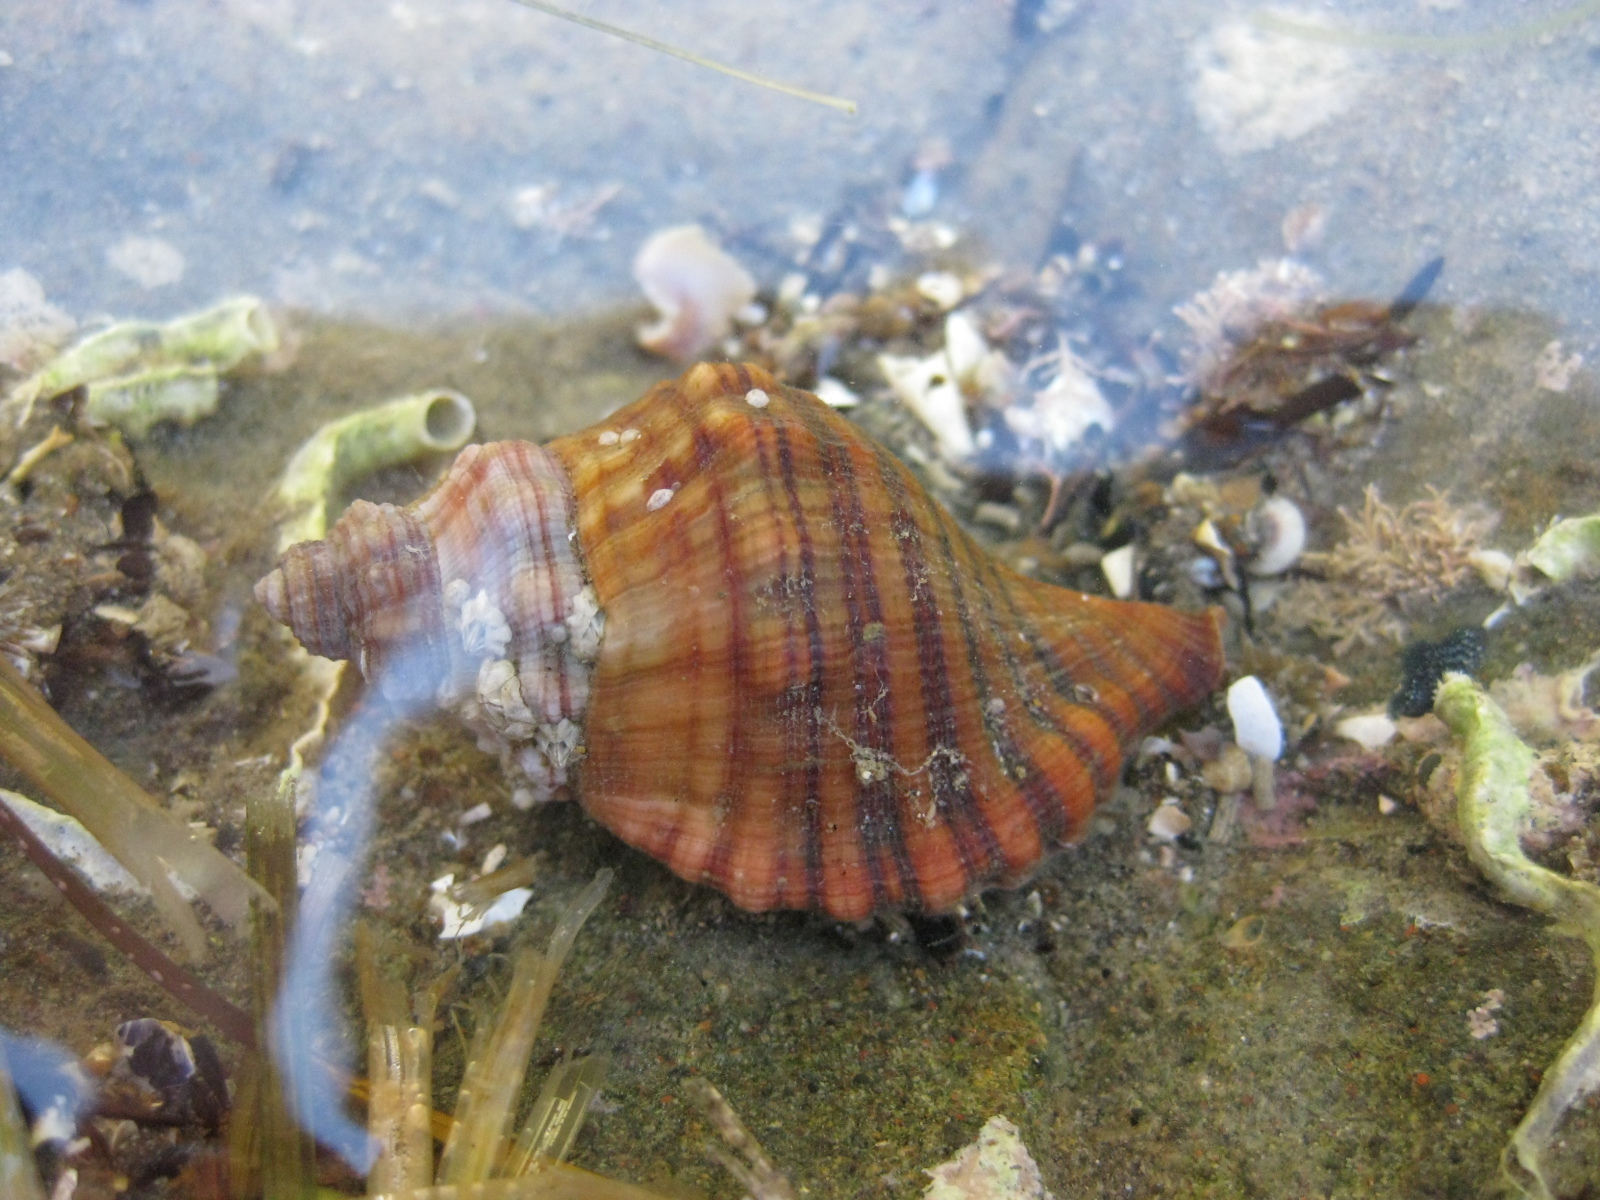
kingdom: Animalia
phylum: Mollusca
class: Gastropoda
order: Littorinimorpha
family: Cymatiidae
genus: Cabestana
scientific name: Cabestana spengleri
